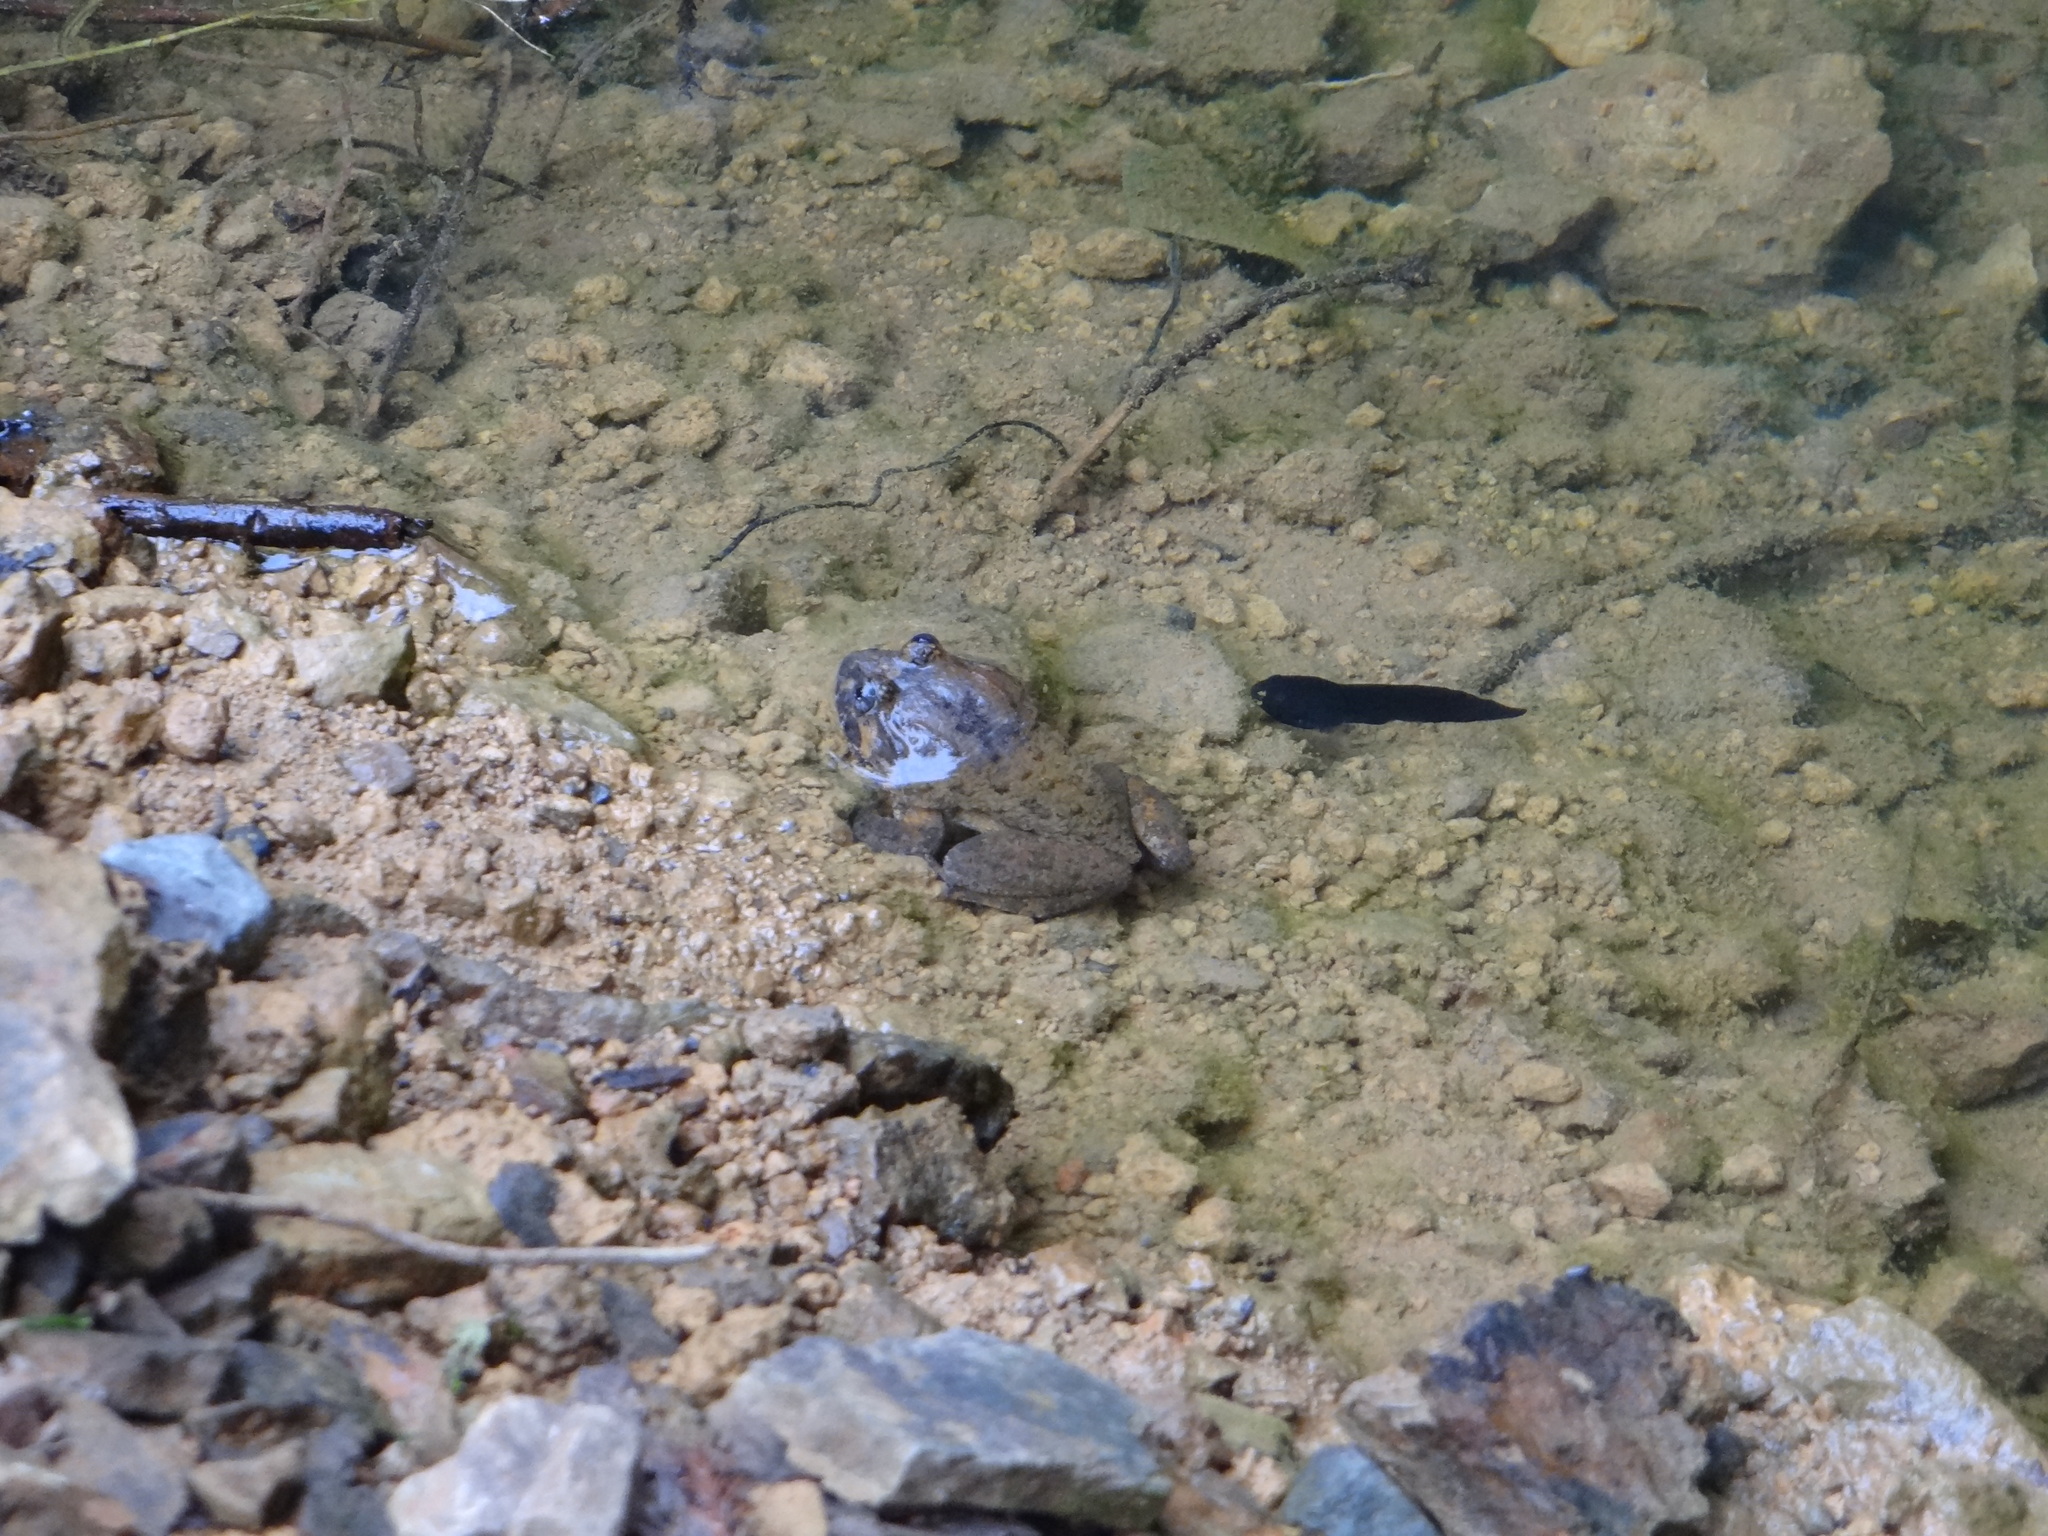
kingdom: Animalia
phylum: Chordata
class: Amphibia
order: Anura
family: Dicroglossidae
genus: Limnonectes
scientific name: Limnonectes fujianensis
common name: Fujian large-headed frog
